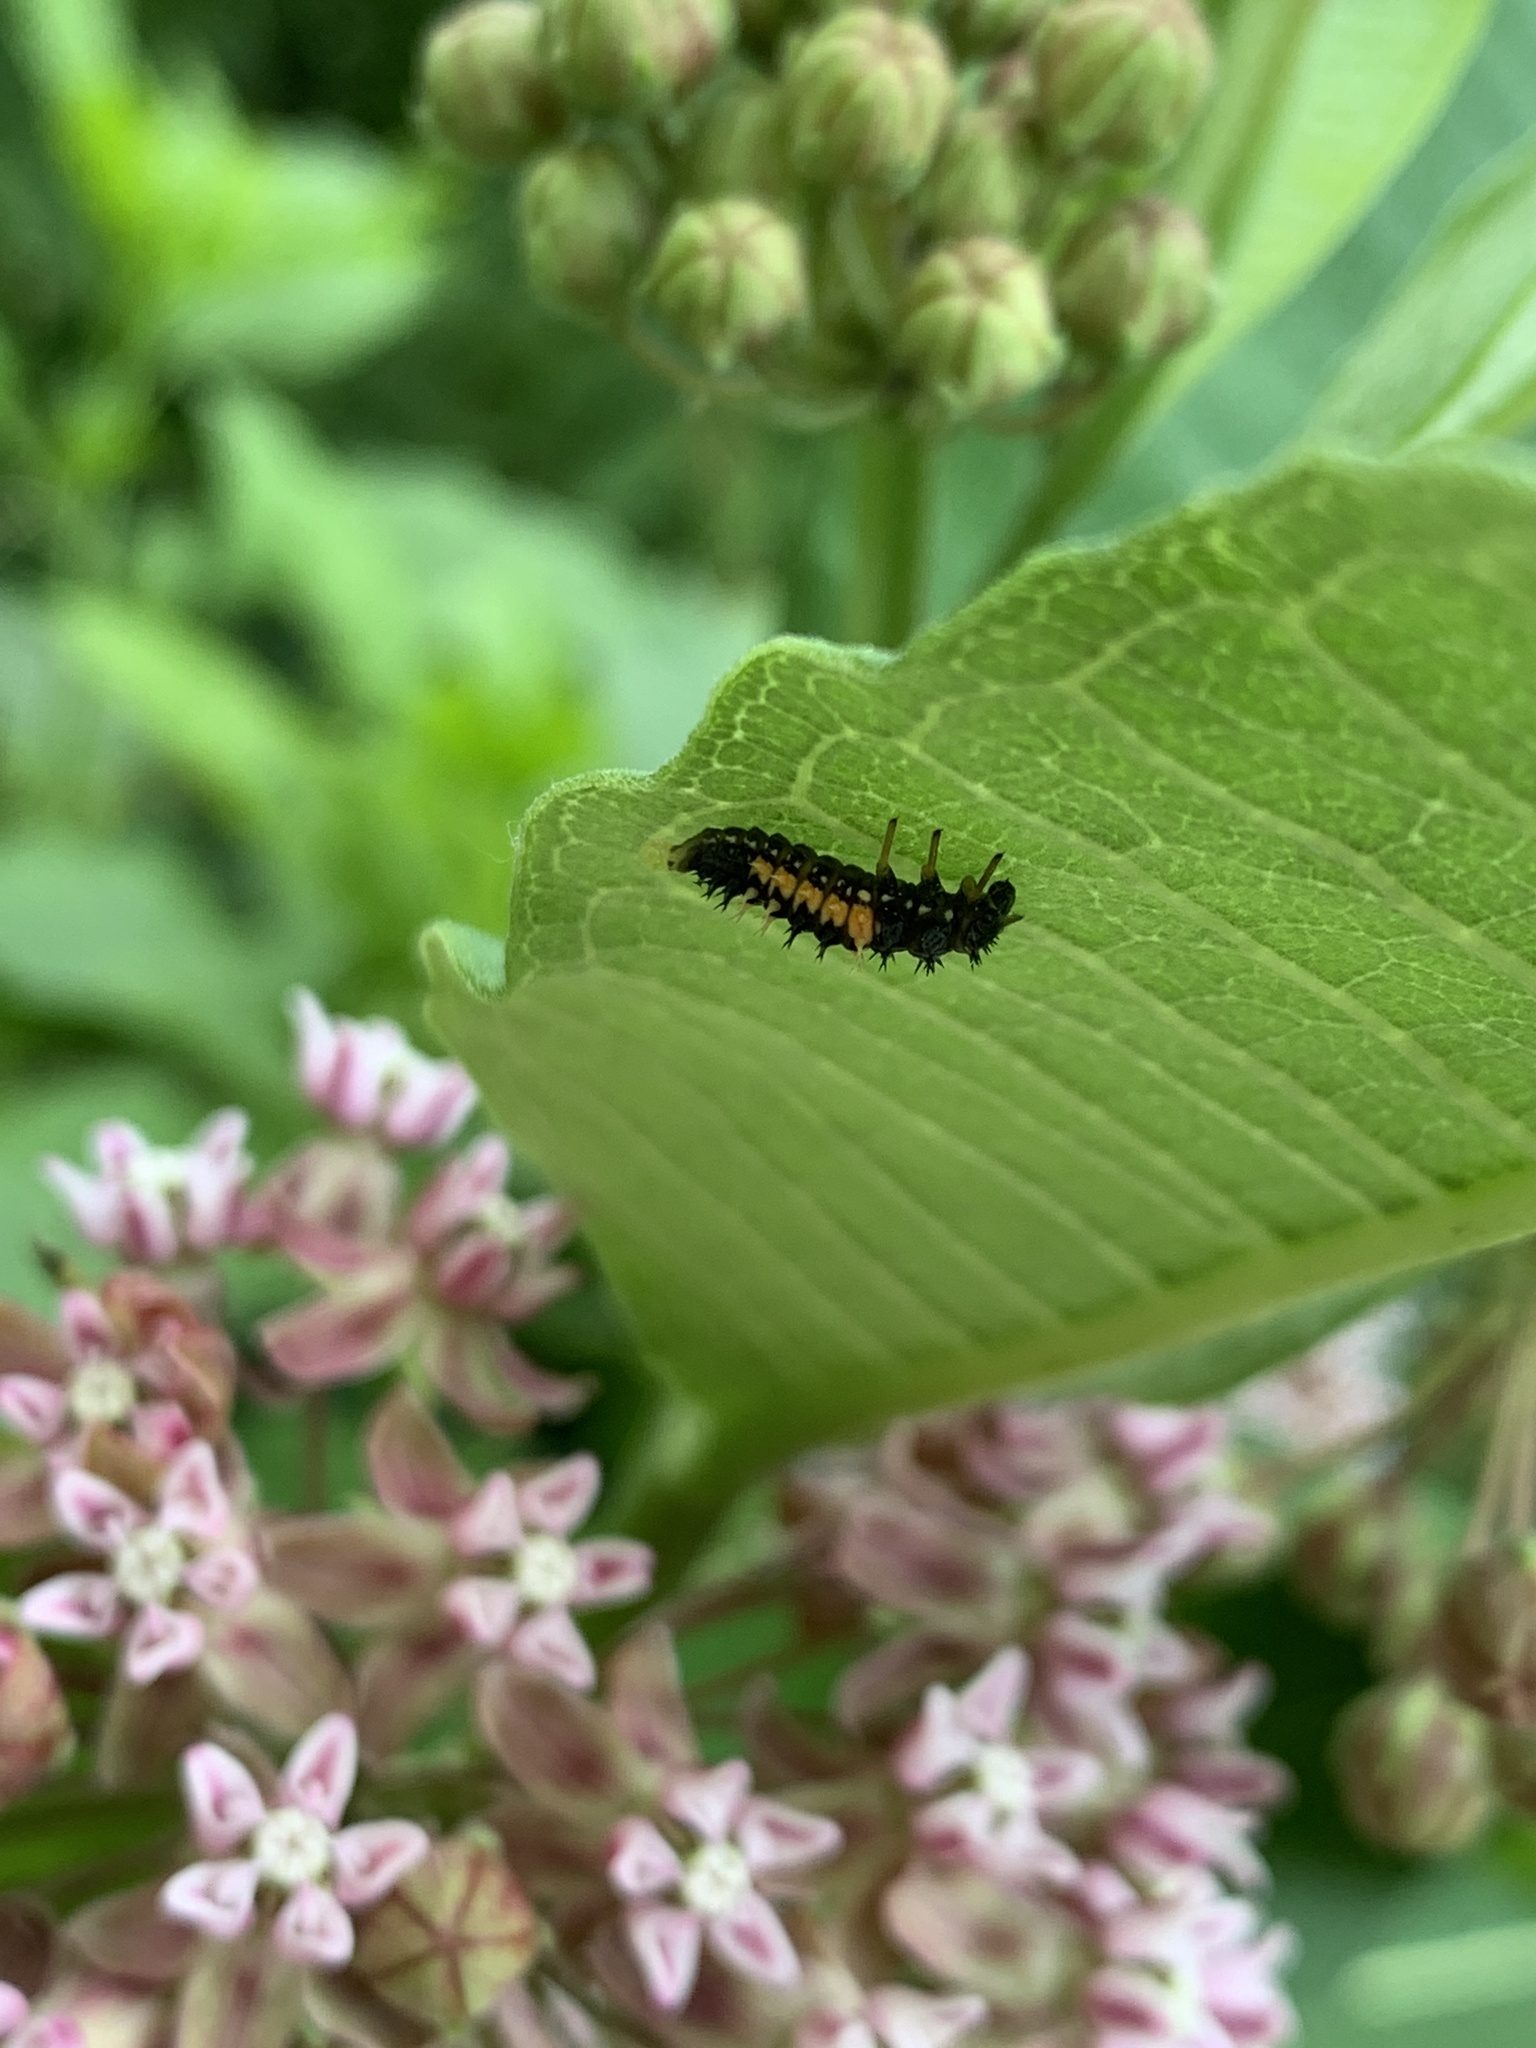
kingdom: Animalia
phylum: Arthropoda
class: Insecta
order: Coleoptera
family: Coccinellidae
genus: Harmonia
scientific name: Harmonia axyridis
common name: Harlequin ladybird
